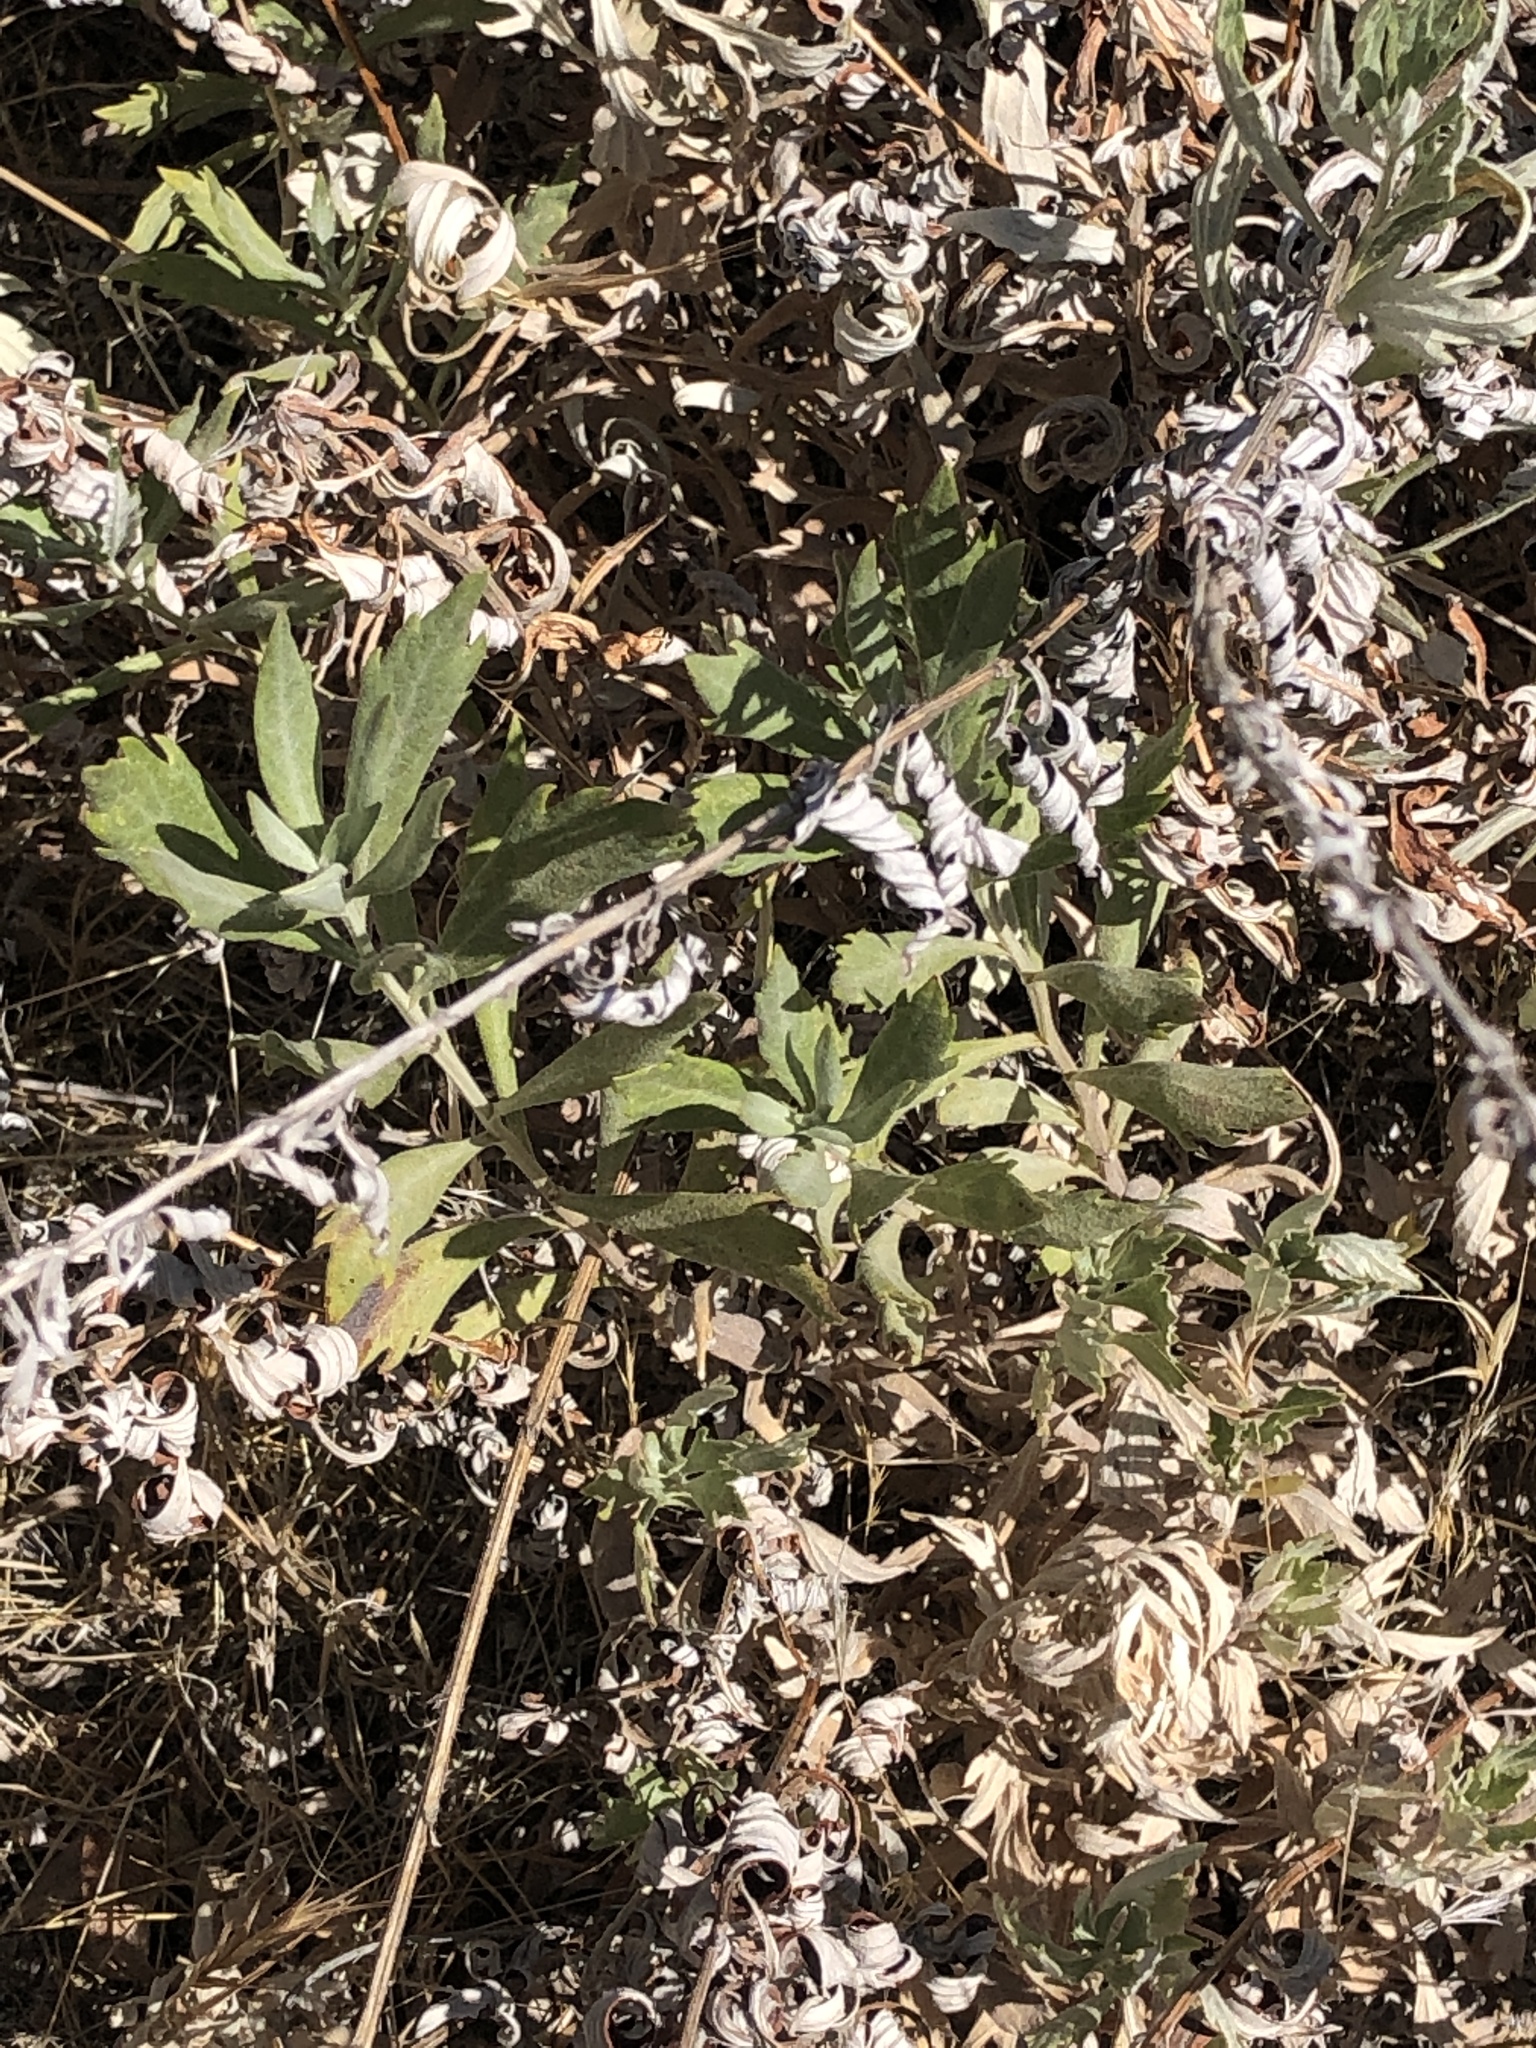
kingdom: Plantae
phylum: Tracheophyta
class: Magnoliopsida
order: Asterales
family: Asteraceae
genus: Artemisia
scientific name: Artemisia douglasiana
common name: Northwest mugwort
